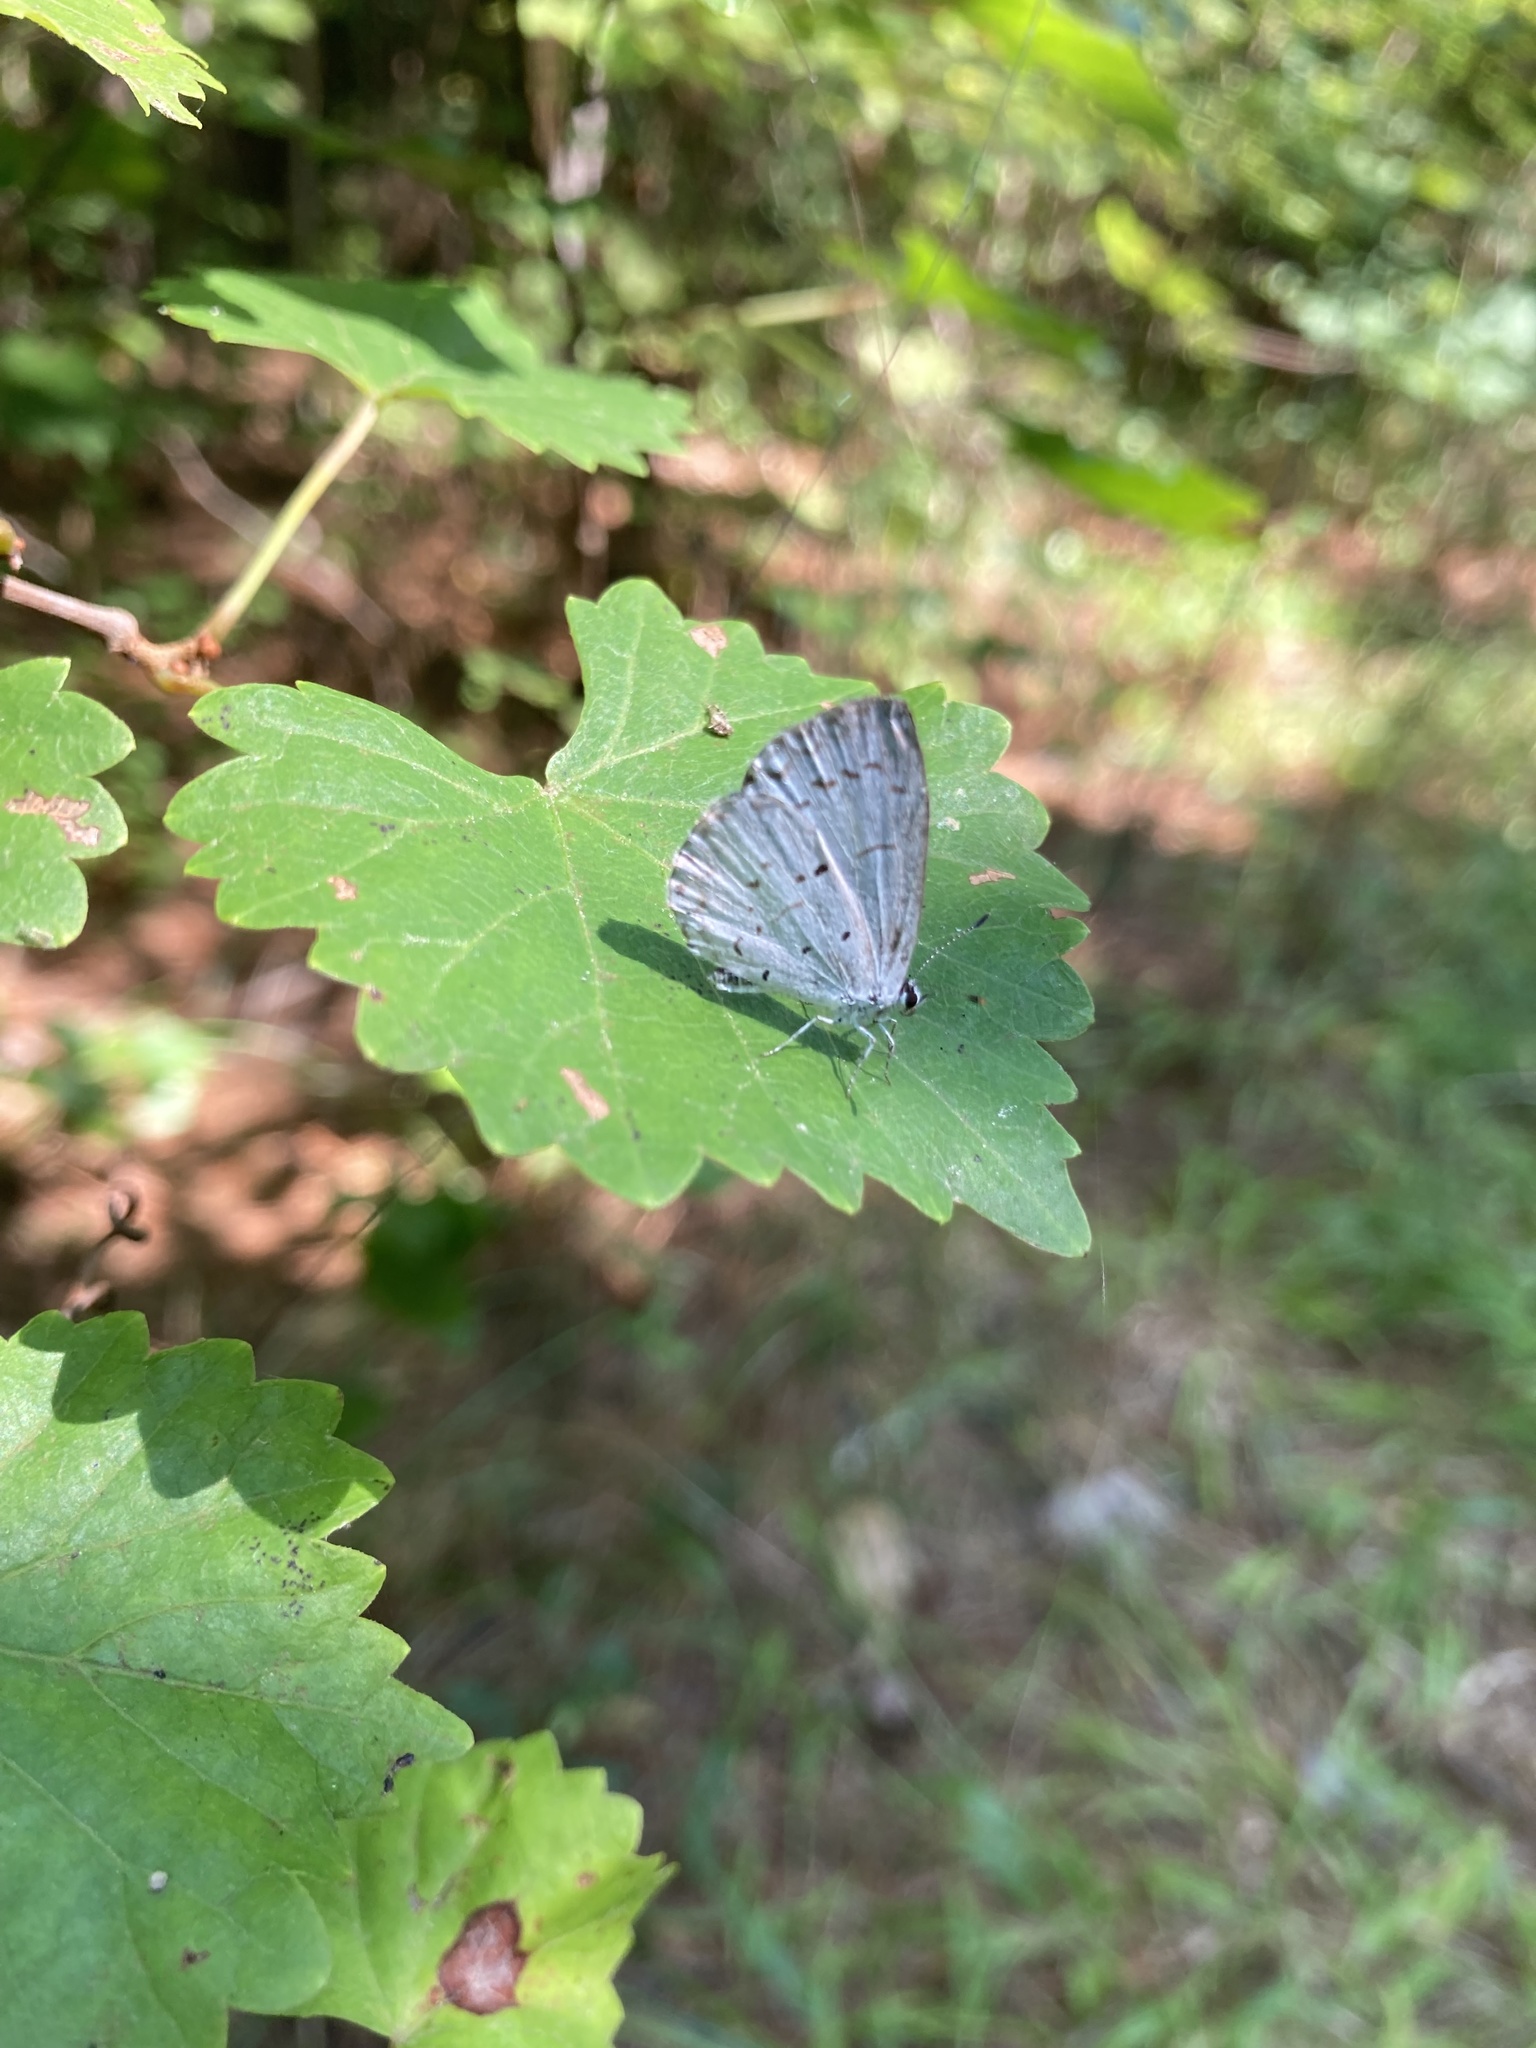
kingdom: Animalia
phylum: Arthropoda
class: Insecta
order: Lepidoptera
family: Lycaenidae
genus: Cyaniris
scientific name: Cyaniris neglecta
